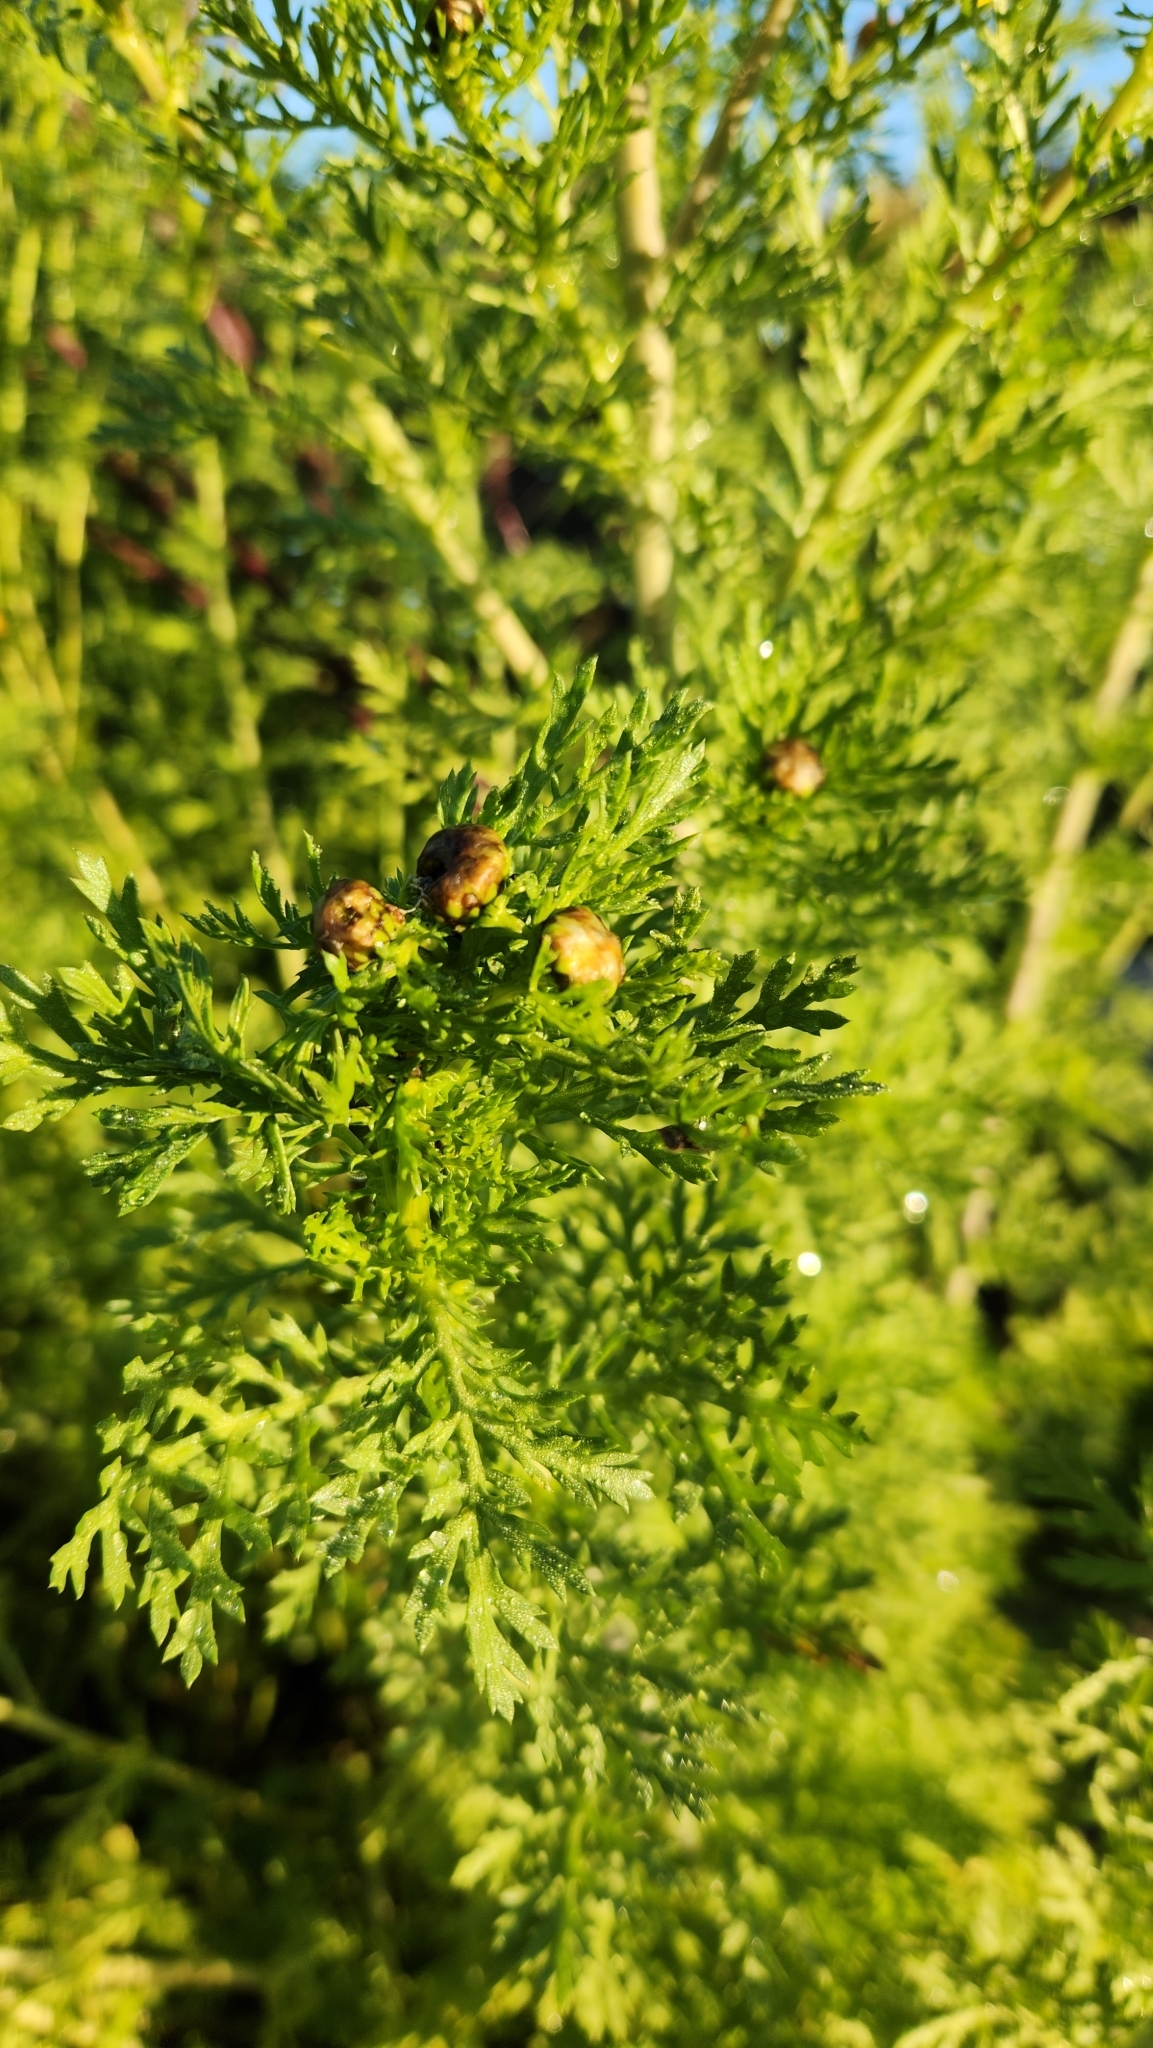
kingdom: Plantae
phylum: Tracheophyta
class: Magnoliopsida
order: Asterales
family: Asteraceae
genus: Glebionis
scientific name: Glebionis coronaria
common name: Crowndaisy
